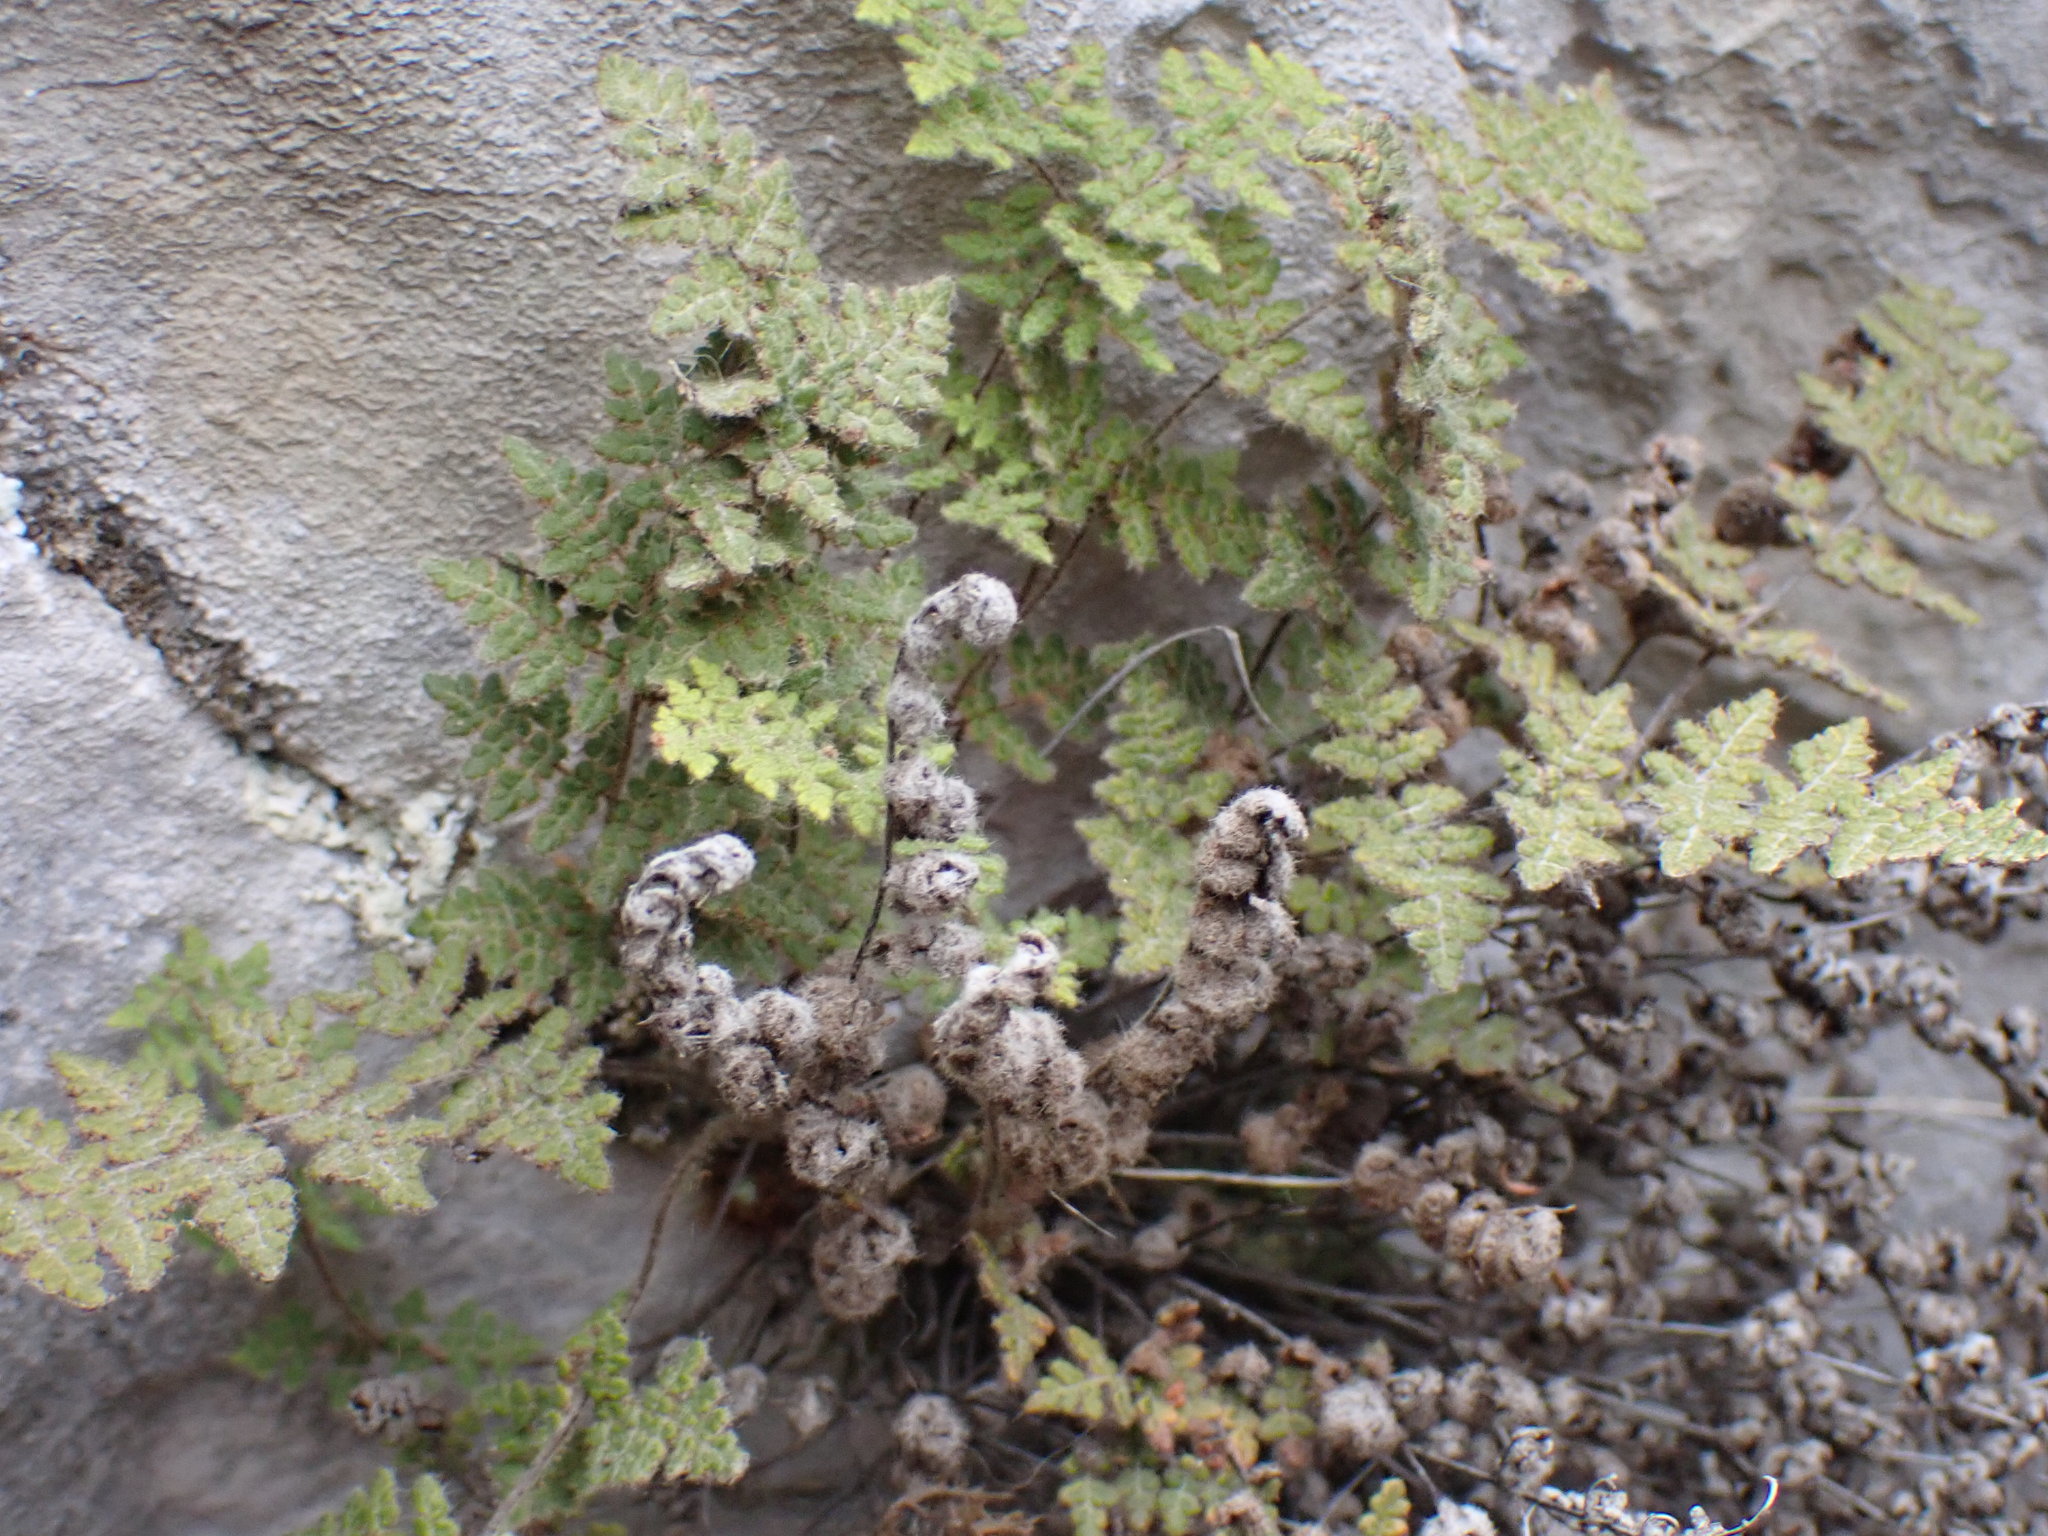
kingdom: Plantae
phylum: Tracheophyta
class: Polypodiopsida
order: Polypodiales
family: Pteridaceae
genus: Myriopteris
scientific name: Myriopteris gracilis
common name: Fee's lip fern
